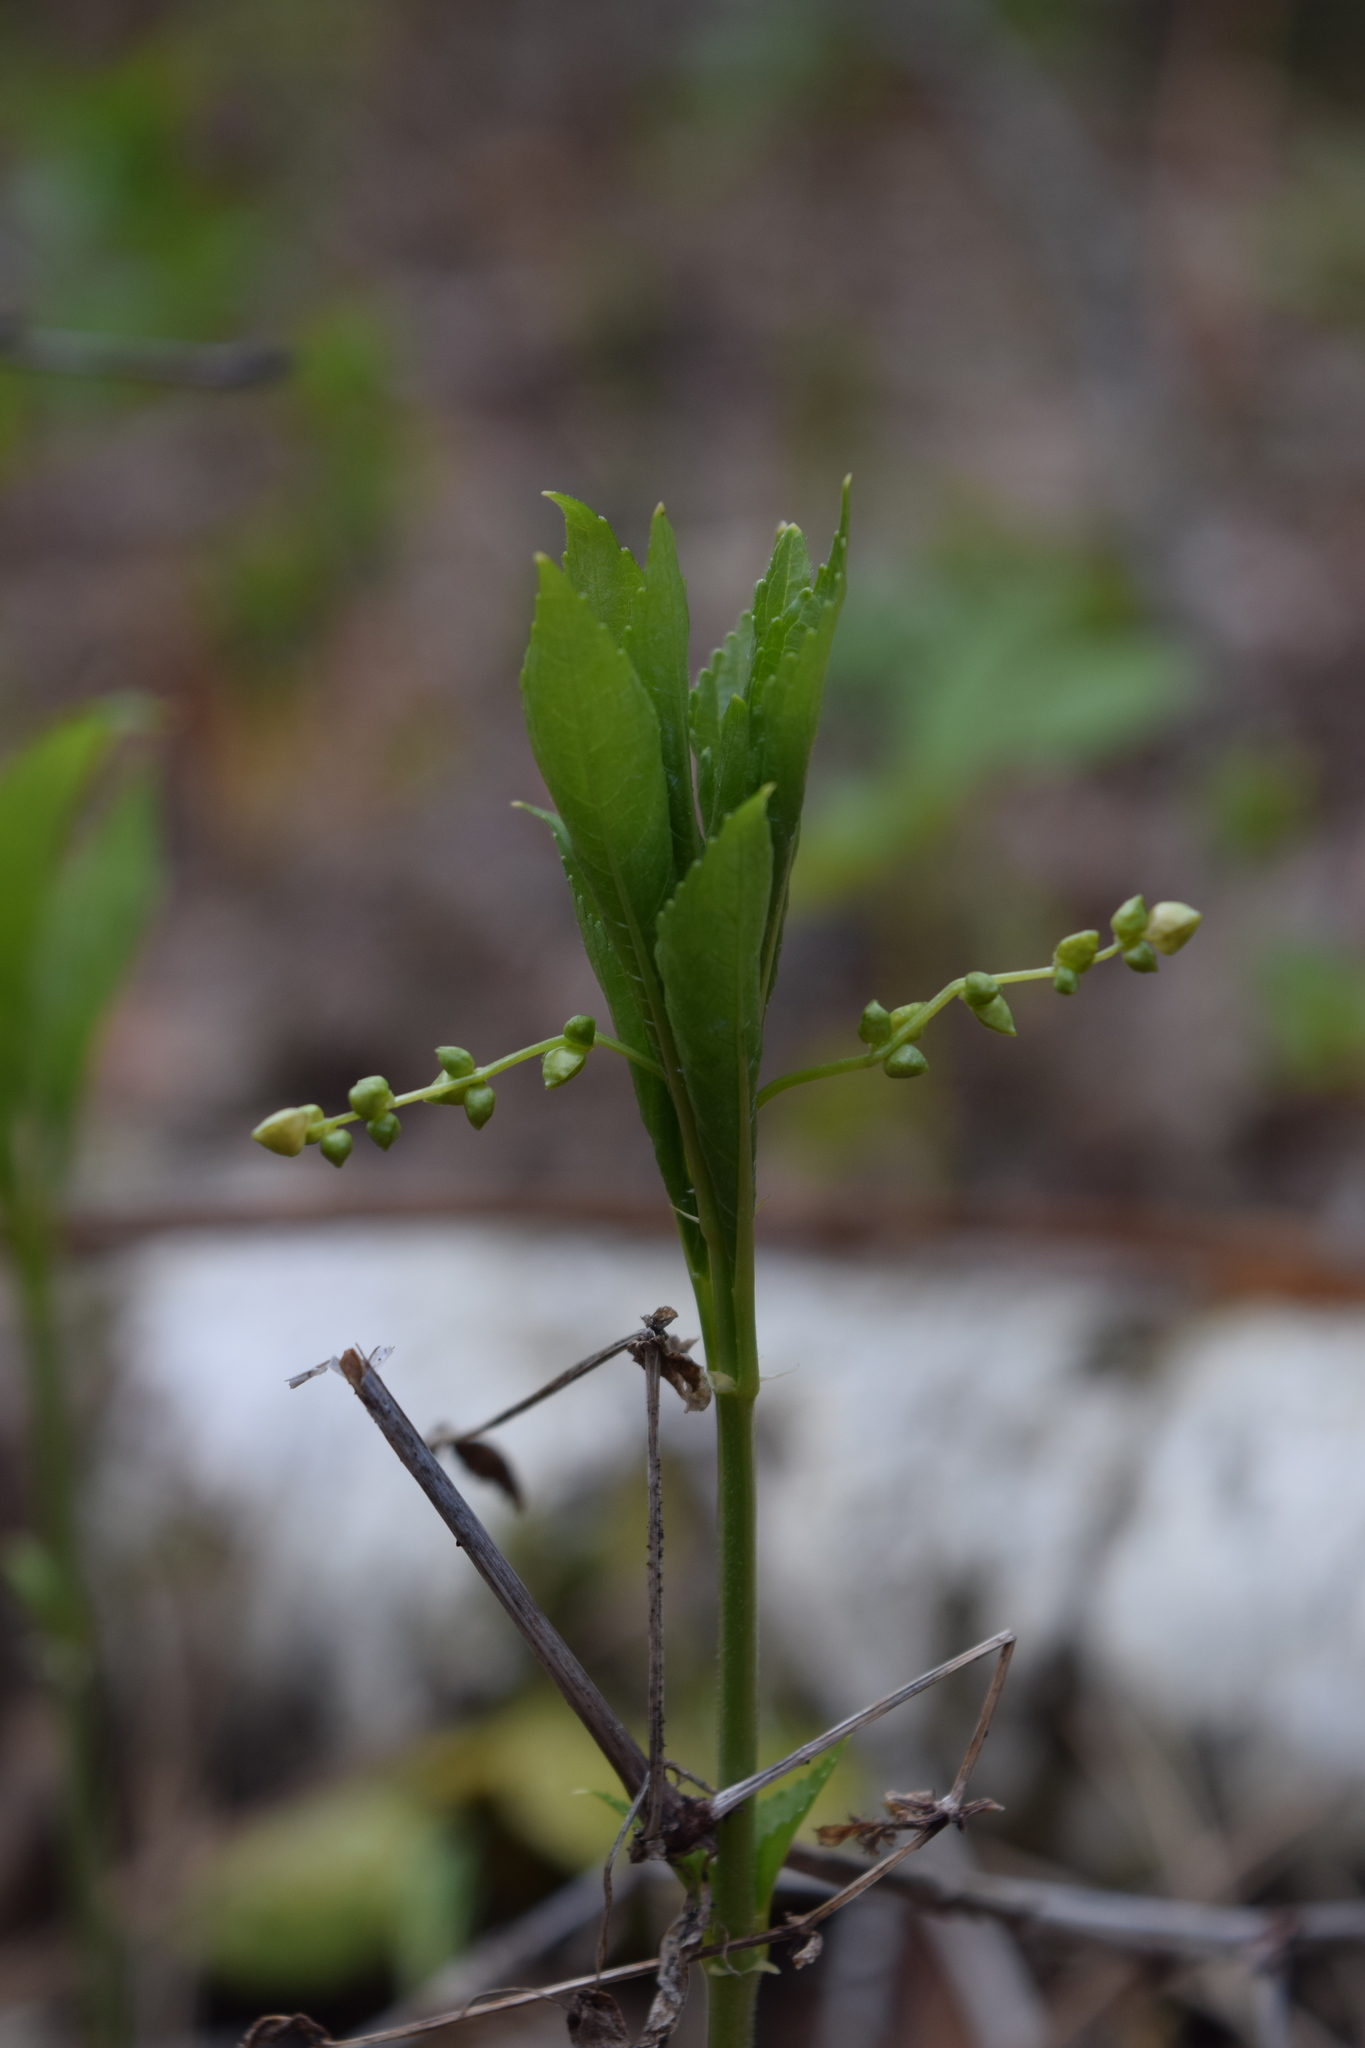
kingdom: Plantae
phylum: Tracheophyta
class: Magnoliopsida
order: Malpighiales
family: Euphorbiaceae
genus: Mercurialis
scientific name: Mercurialis perennis
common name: Dog mercury
